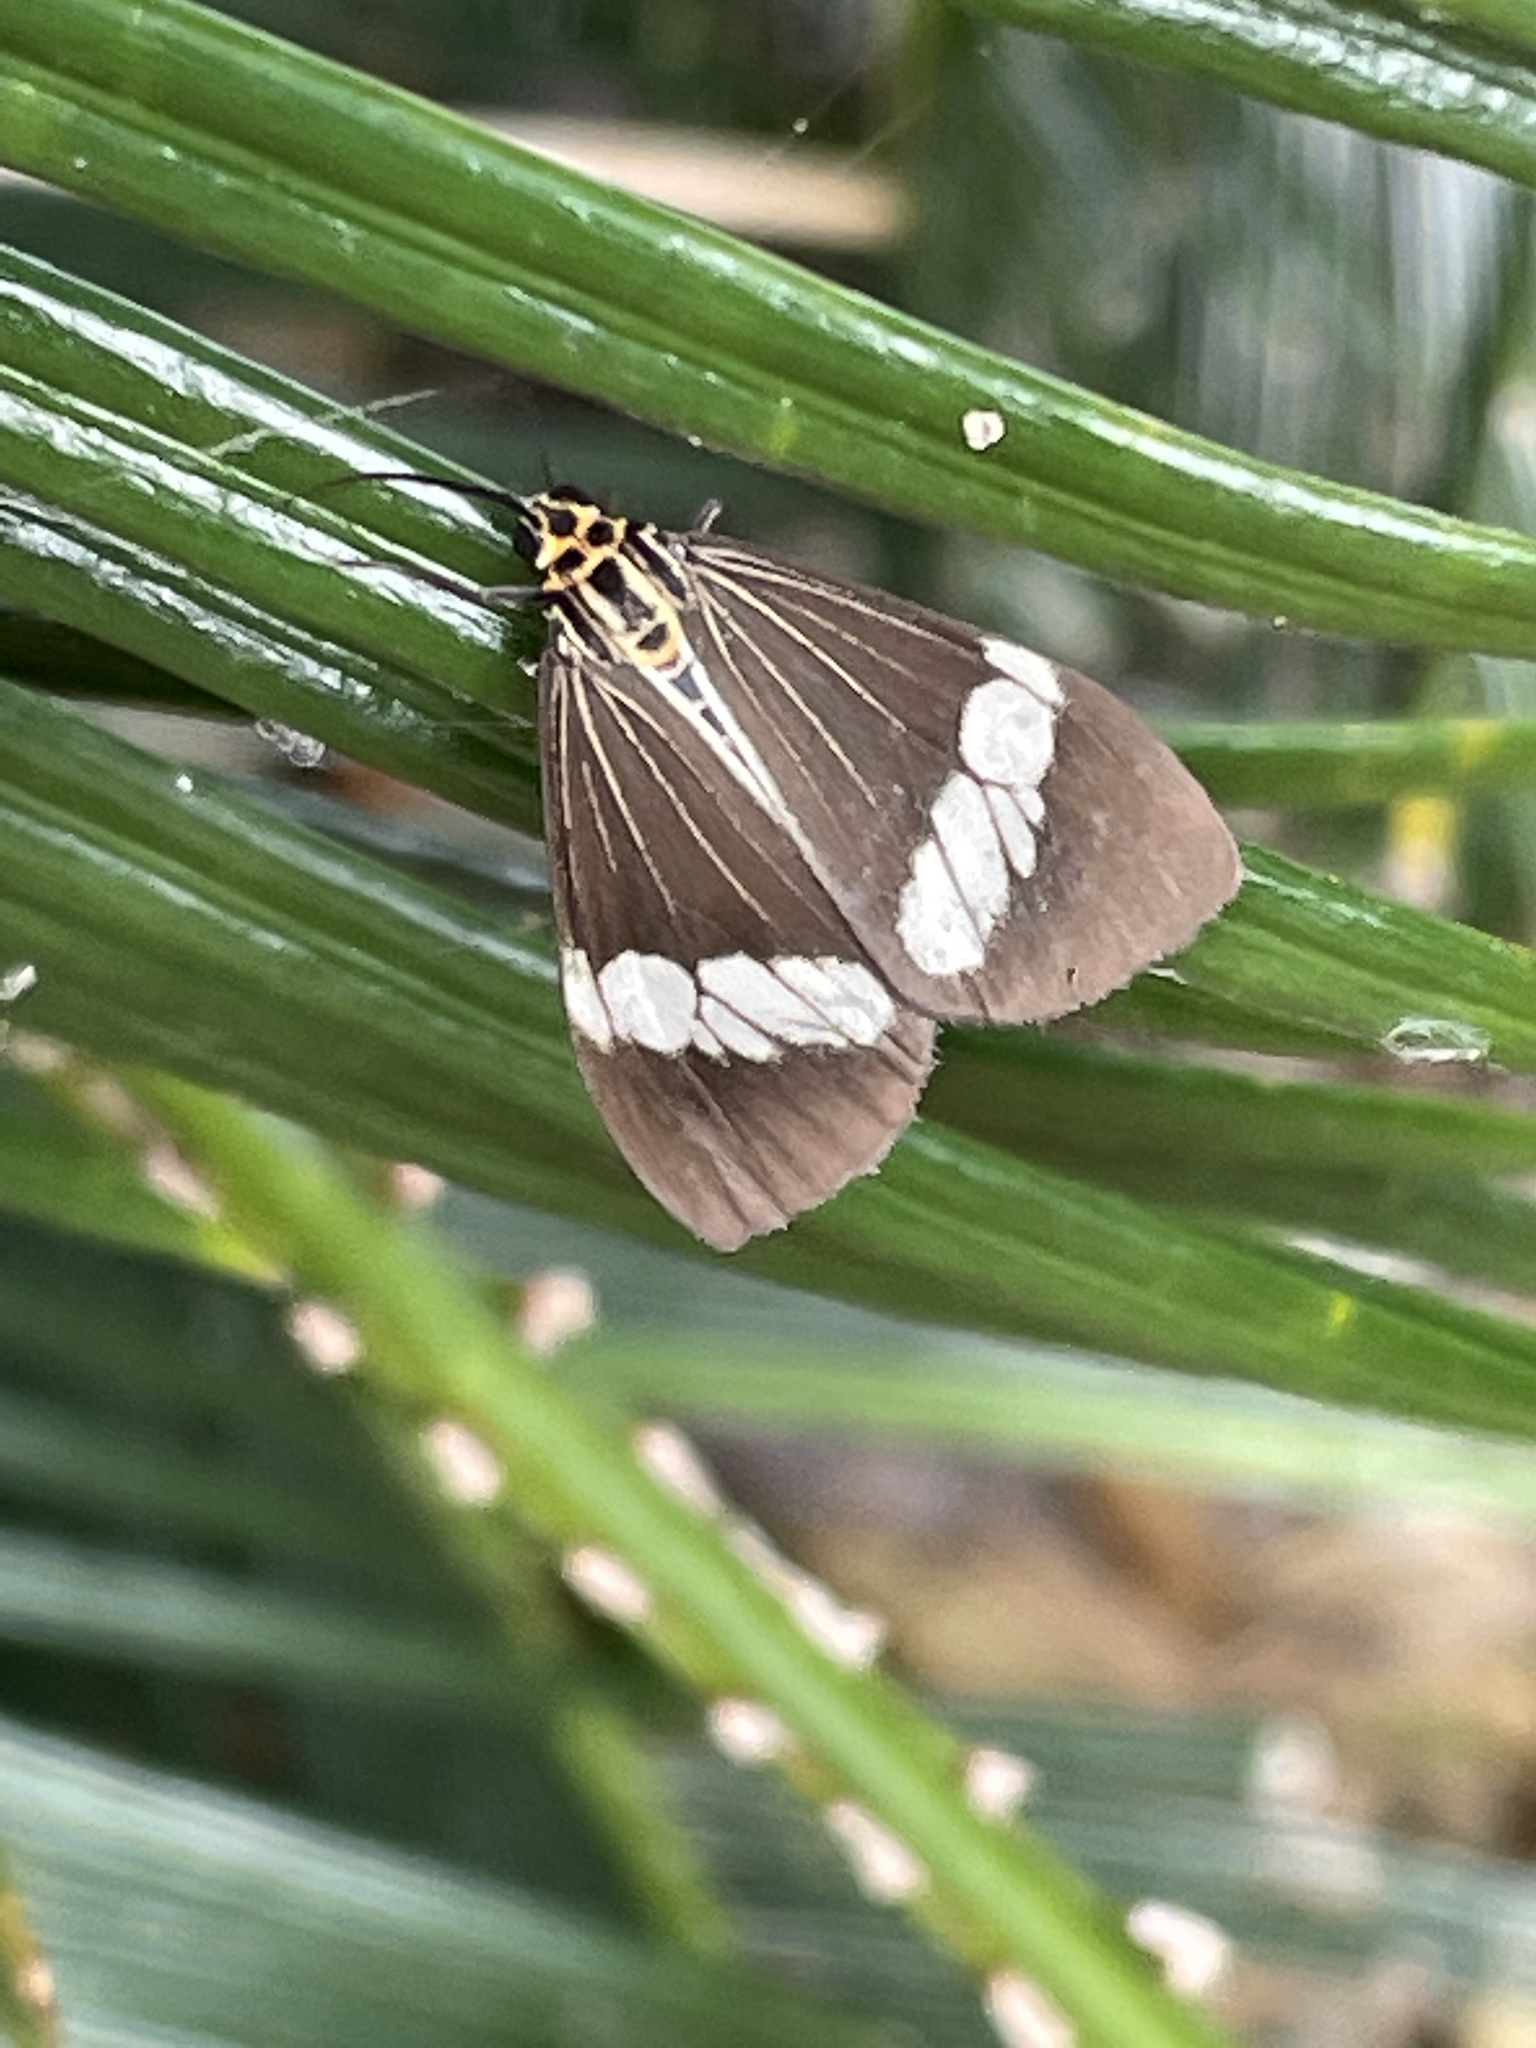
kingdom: Animalia
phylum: Arthropoda
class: Insecta
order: Lepidoptera
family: Erebidae
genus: Nyctemera
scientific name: Nyctemera baulus
